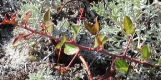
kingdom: Plantae
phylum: Tracheophyta
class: Magnoliopsida
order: Celastrales
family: Celastraceae
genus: Putterlickia
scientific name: Putterlickia pyracantha
